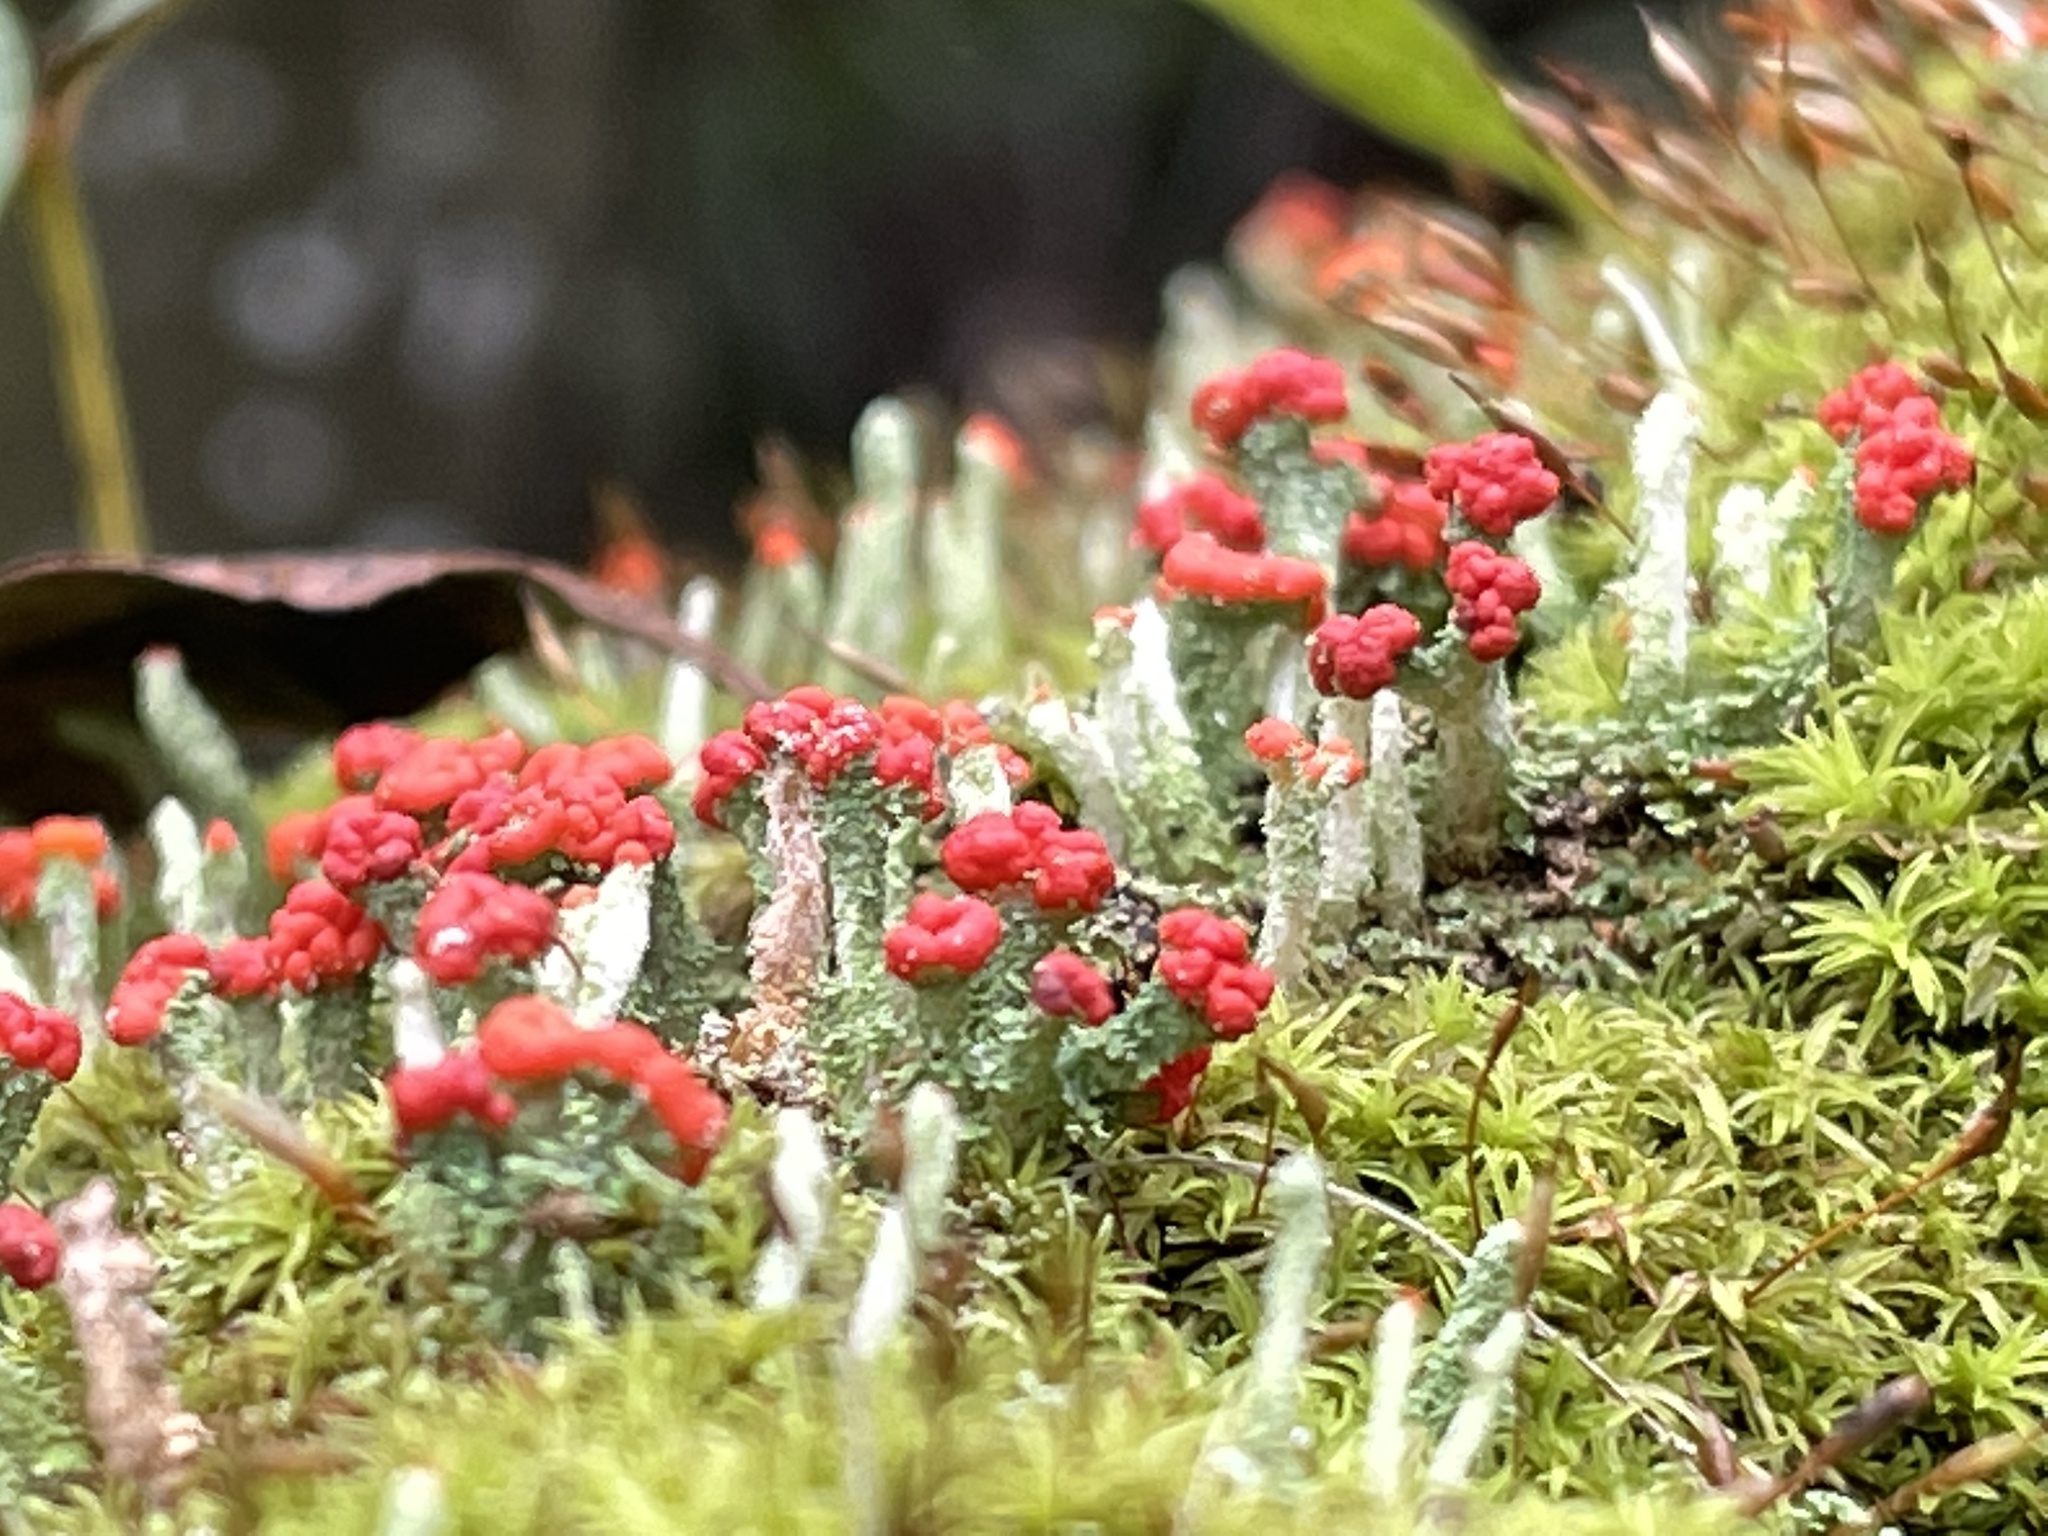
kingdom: Fungi
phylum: Ascomycota
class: Lecanoromycetes
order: Lecanorales
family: Cladoniaceae
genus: Cladonia
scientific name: Cladonia macilenta
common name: Lipstick powderhorn
